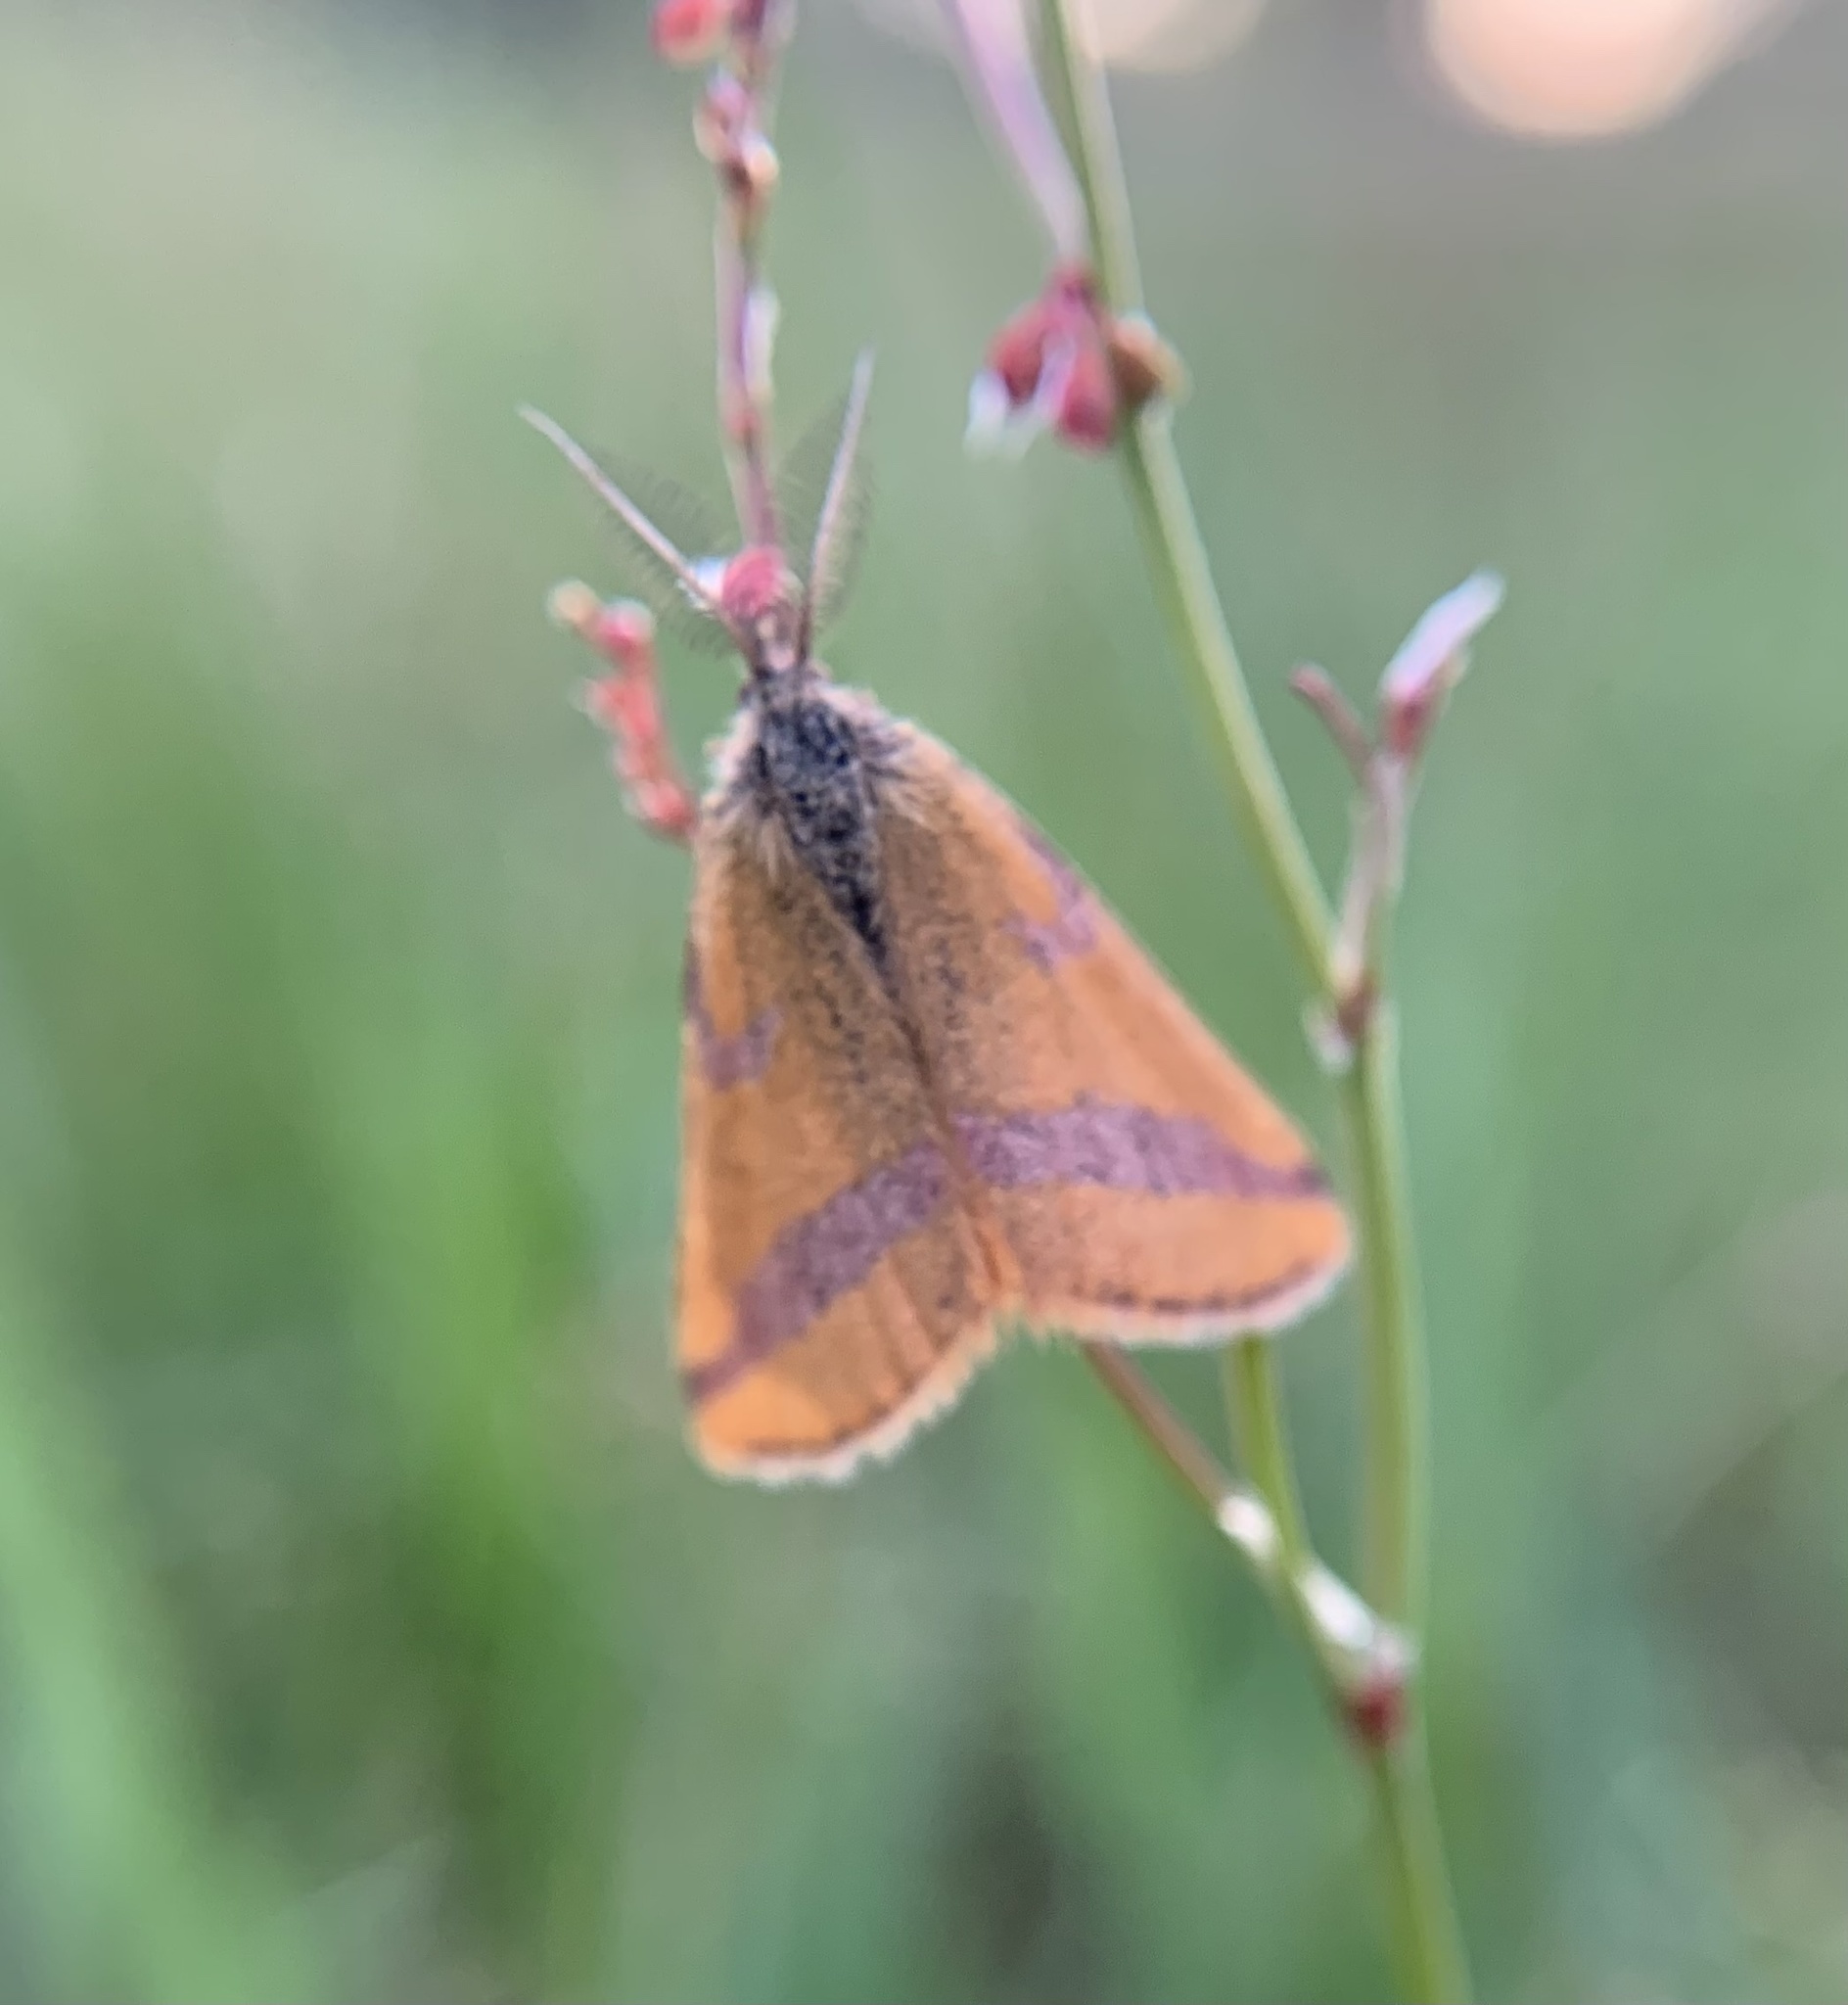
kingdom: Animalia
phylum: Arthropoda
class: Insecta
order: Lepidoptera
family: Geometridae
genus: Lythria
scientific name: Lythria cruentaria
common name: Purple-barred yellow
